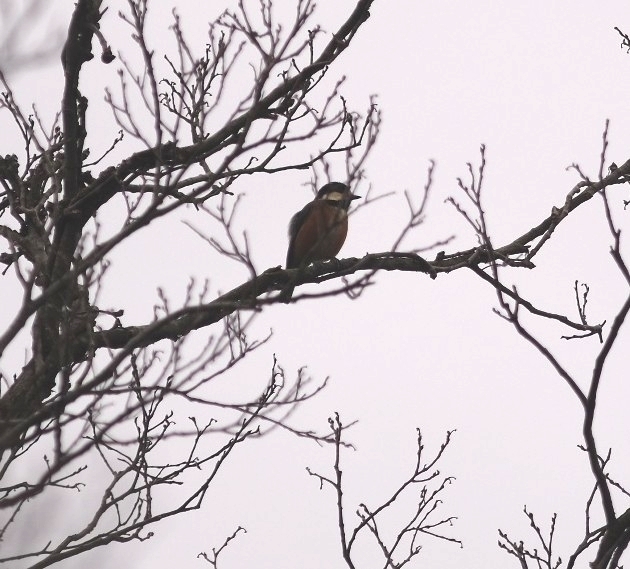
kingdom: Animalia
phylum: Chordata
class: Aves
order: Passeriformes
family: Paridae
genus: Poecile
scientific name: Poecile varius
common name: Varied tit
